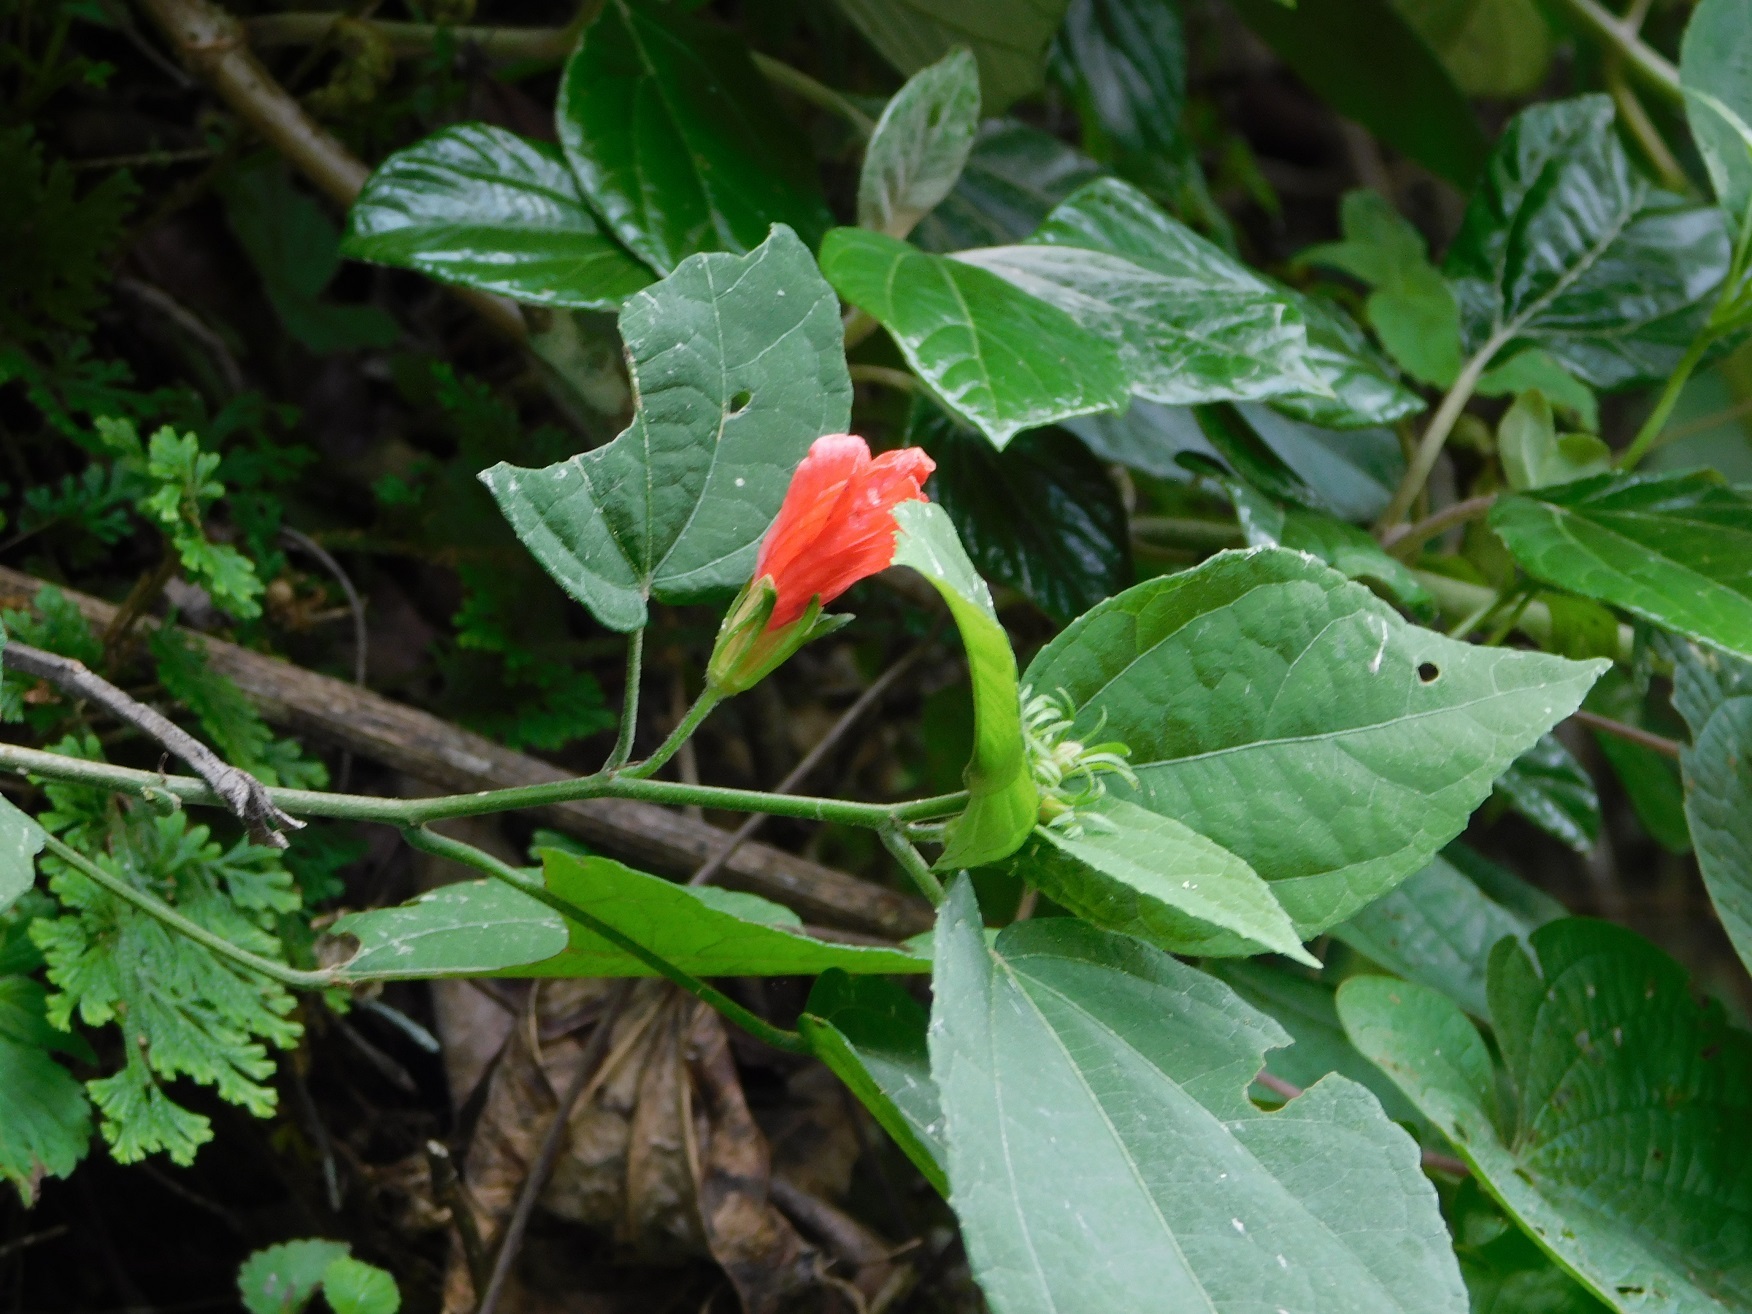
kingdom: Plantae
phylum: Tracheophyta
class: Magnoliopsida
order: Malvales
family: Malvaceae
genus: Malvaviscus
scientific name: Malvaviscus arboreus
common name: Wax mallow
